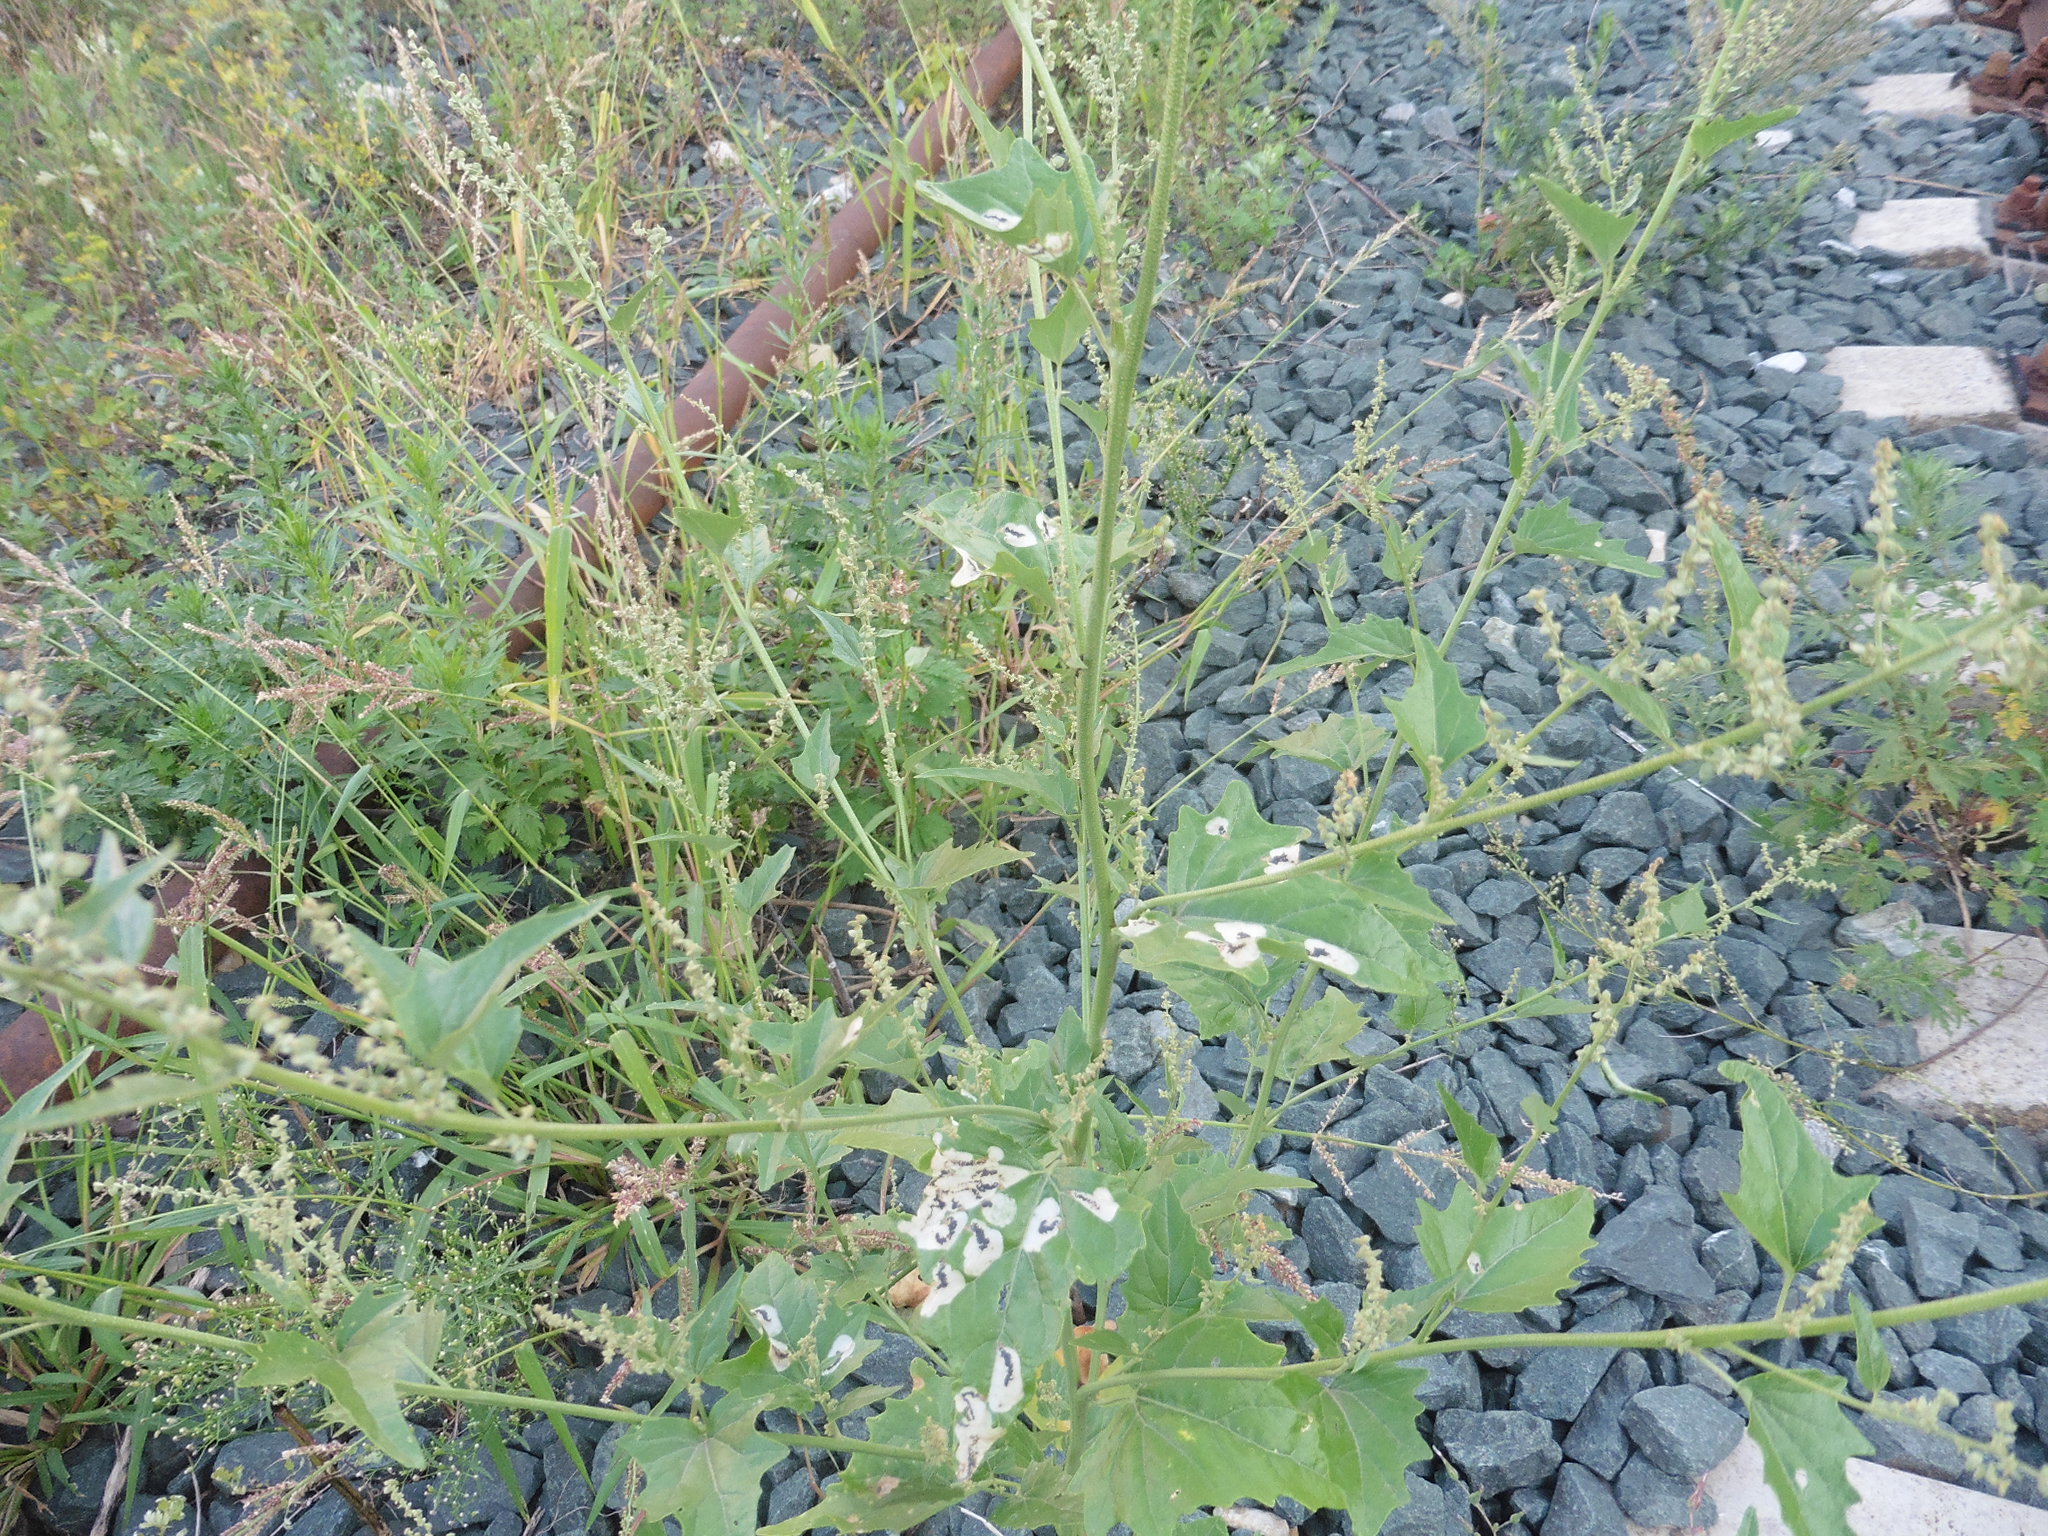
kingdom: Plantae
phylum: Tracheophyta
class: Magnoliopsida
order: Caryophyllales
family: Amaranthaceae
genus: Atriplex
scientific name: Atriplex sagittata
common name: Purple orache
